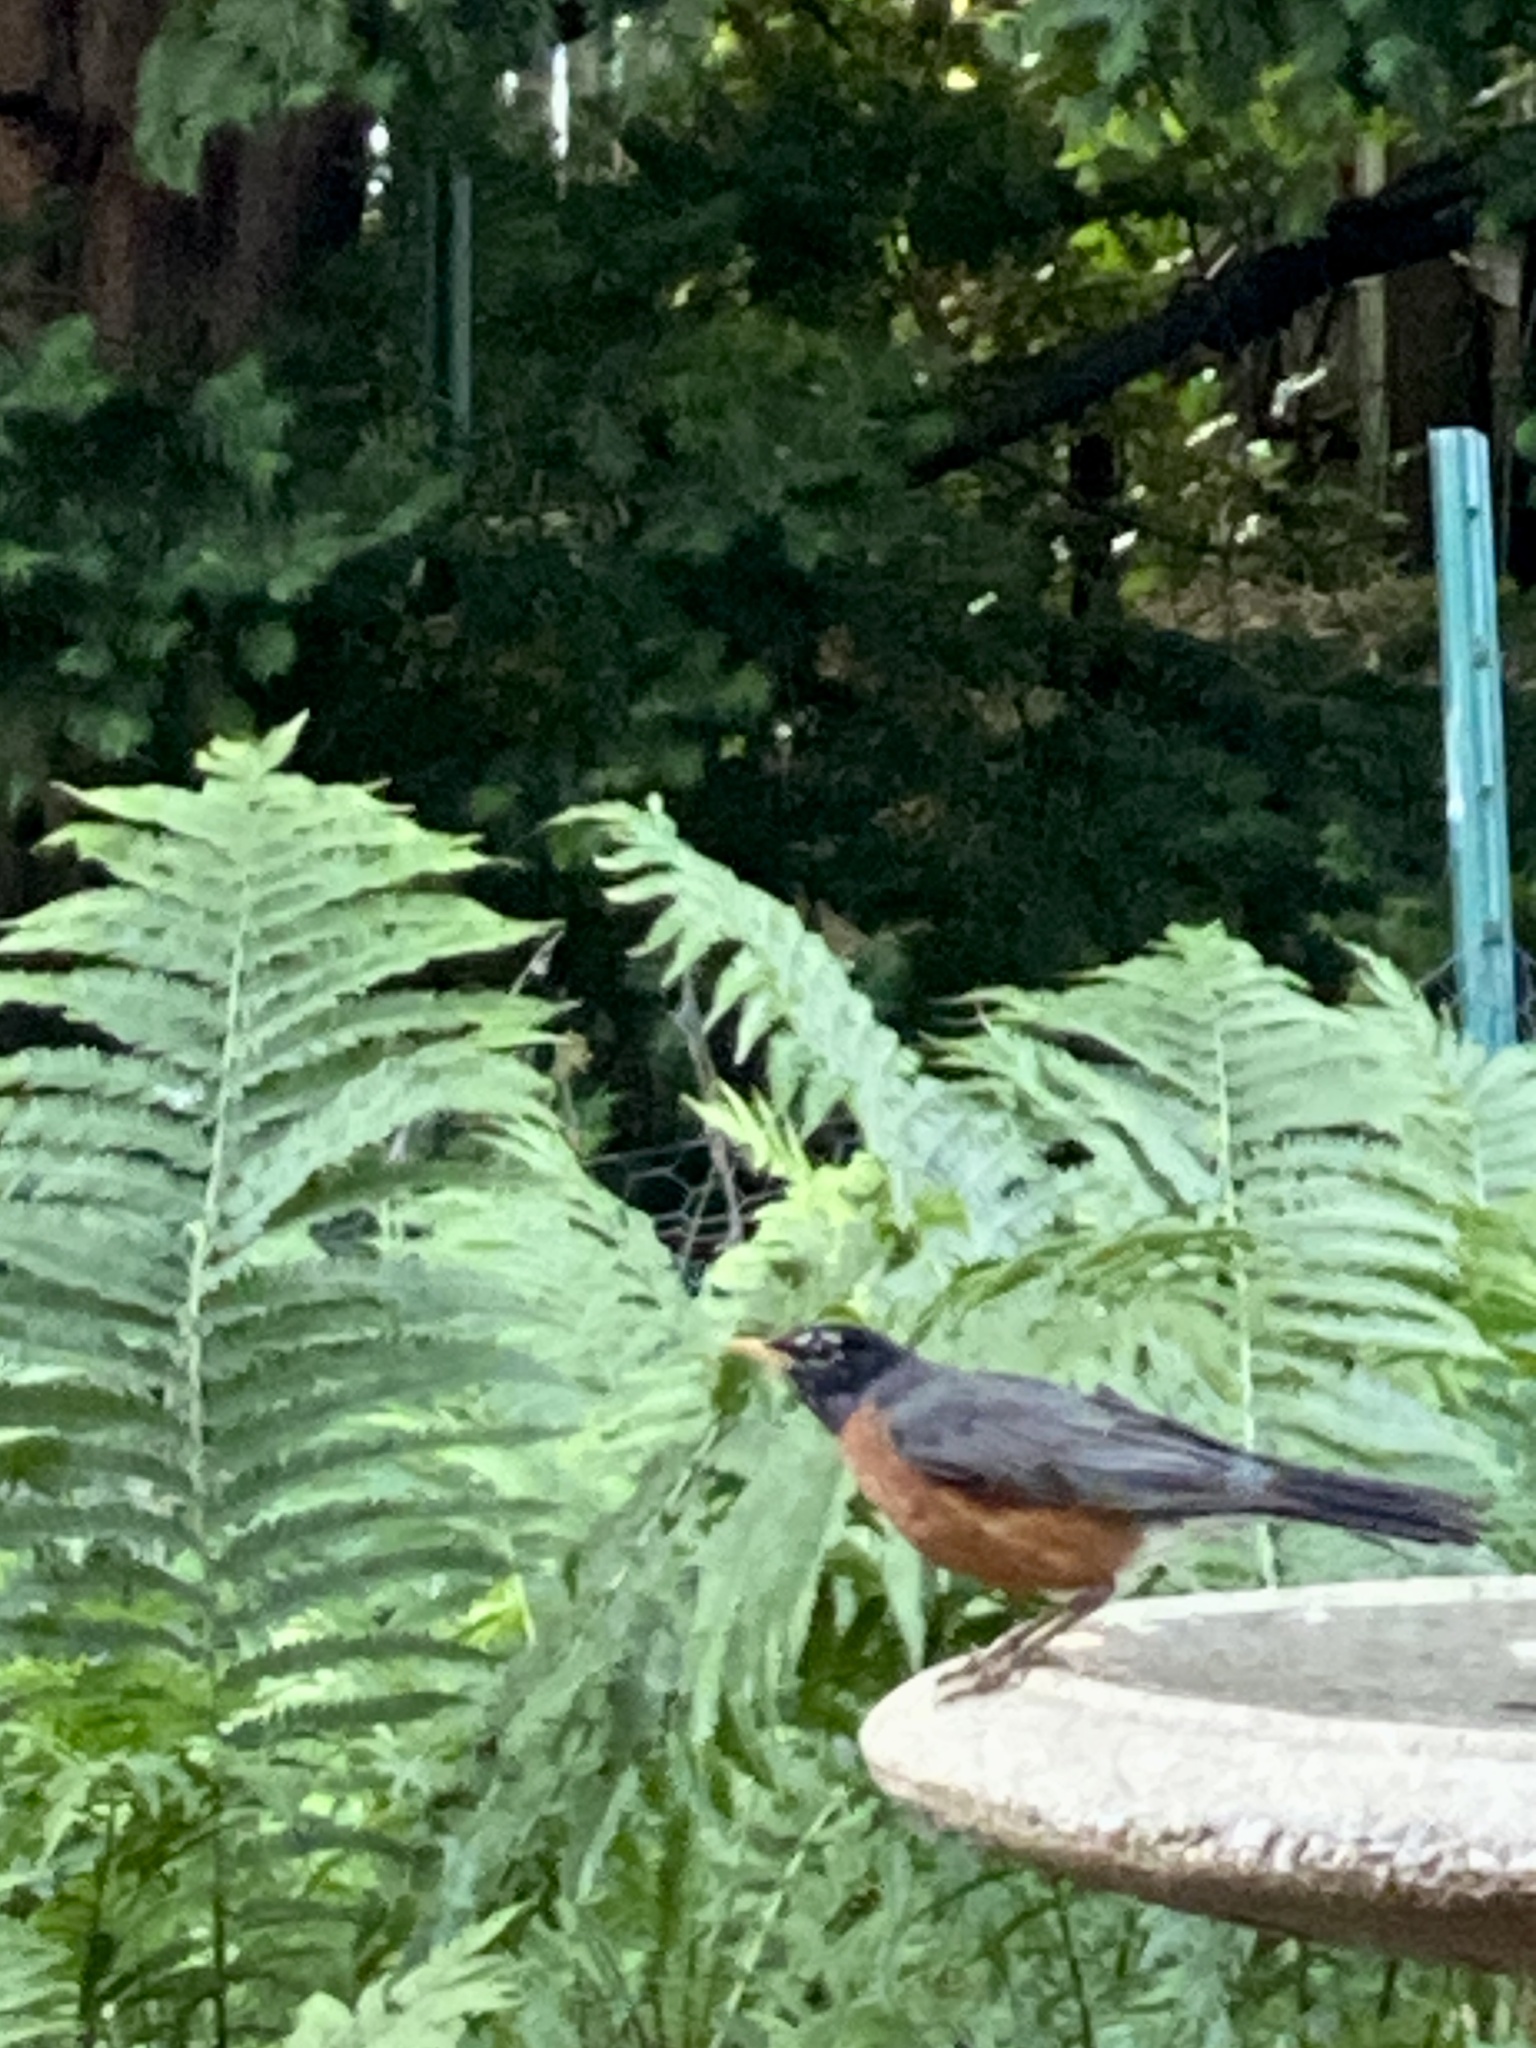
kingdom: Animalia
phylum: Chordata
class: Aves
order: Passeriformes
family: Turdidae
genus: Turdus
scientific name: Turdus migratorius
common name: American robin
